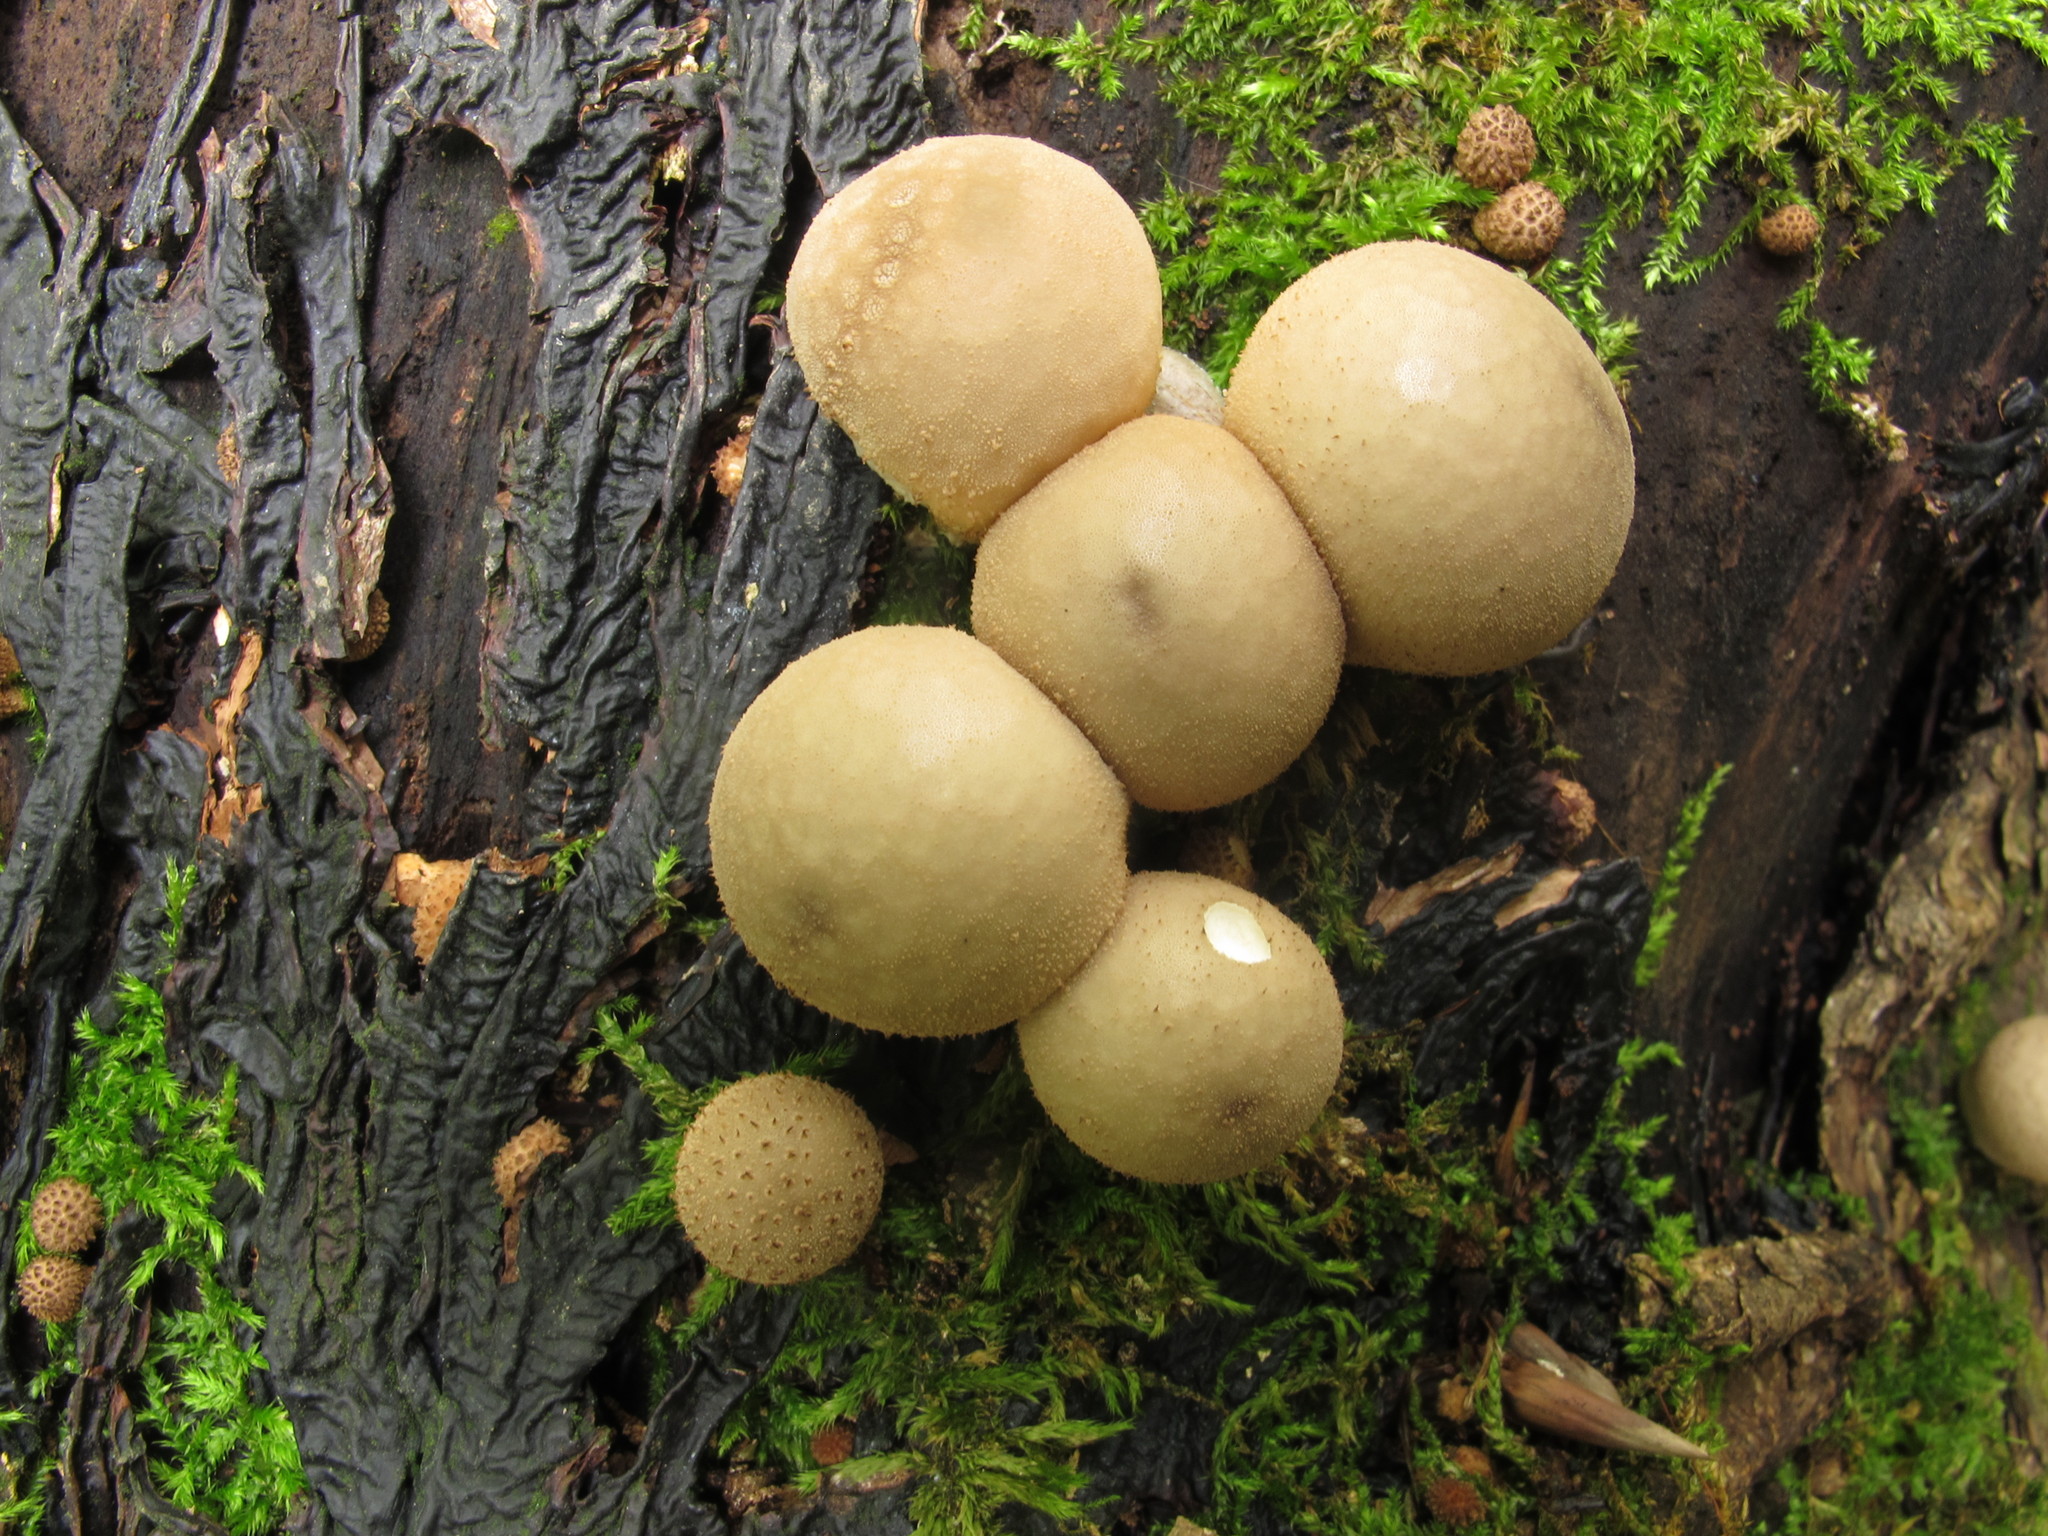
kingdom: Fungi
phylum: Basidiomycota
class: Agaricomycetes
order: Agaricales
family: Lycoperdaceae
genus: Apioperdon
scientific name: Apioperdon pyriforme
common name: Pear-shaped puffball
